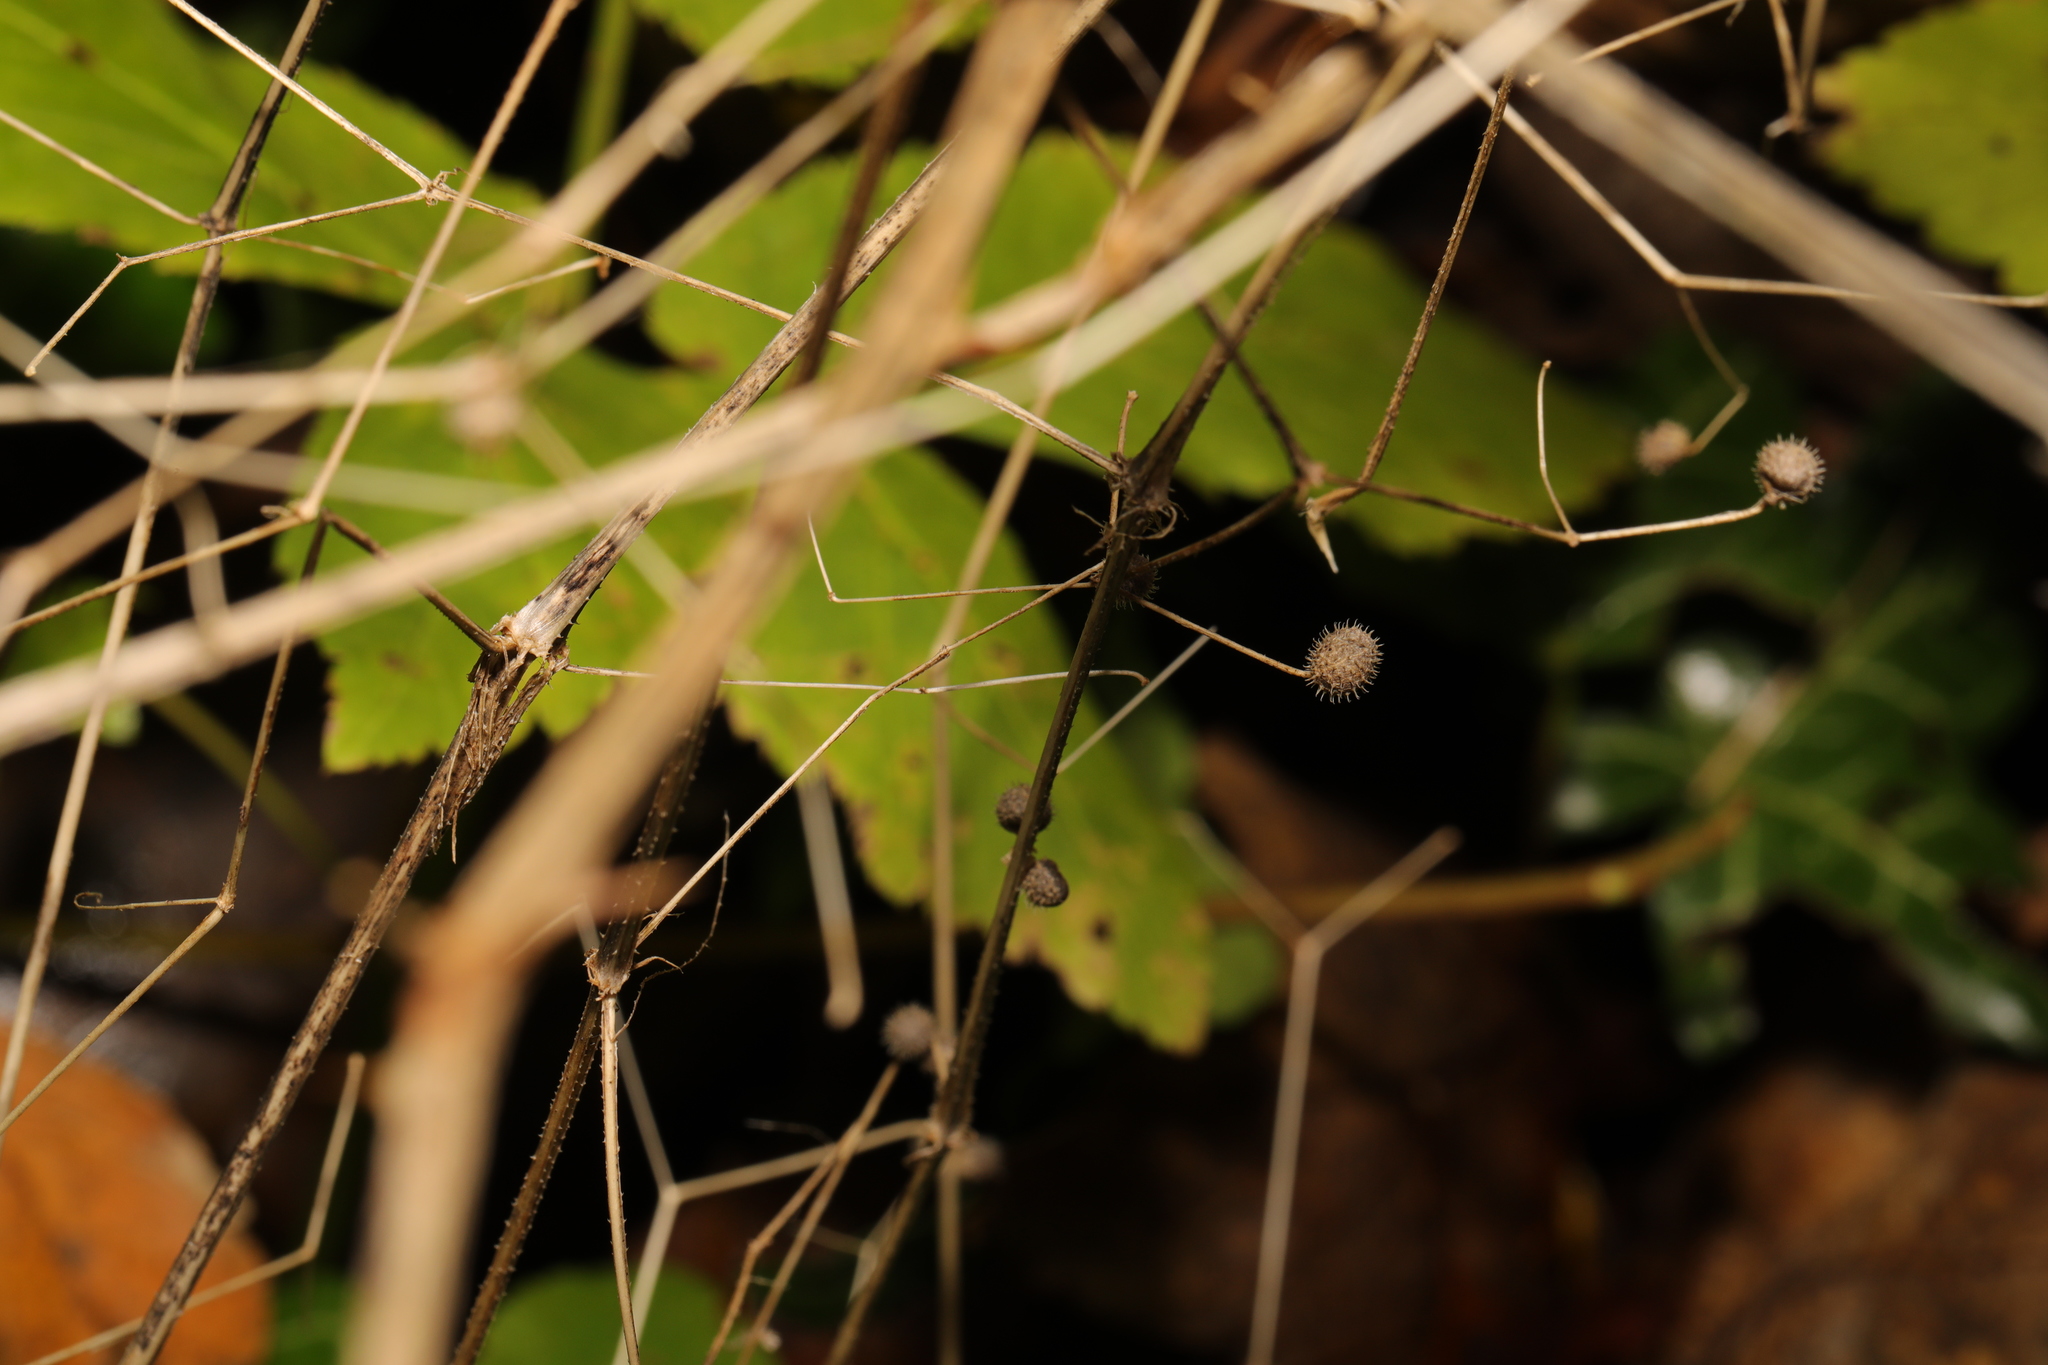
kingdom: Plantae
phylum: Tracheophyta
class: Magnoliopsida
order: Gentianales
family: Rubiaceae
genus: Galium
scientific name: Galium aparine
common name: Cleavers
